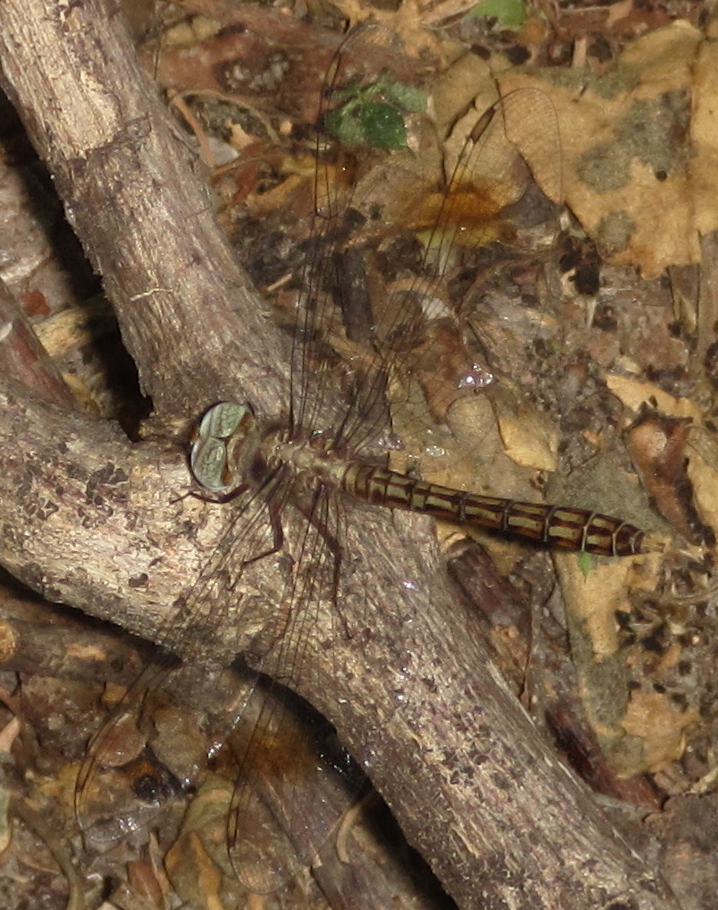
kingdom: Animalia
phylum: Arthropoda
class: Insecta
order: Odonata
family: Libellulidae
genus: Parazyxomma
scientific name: Parazyxomma flavicans
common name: Banded duskdarter
